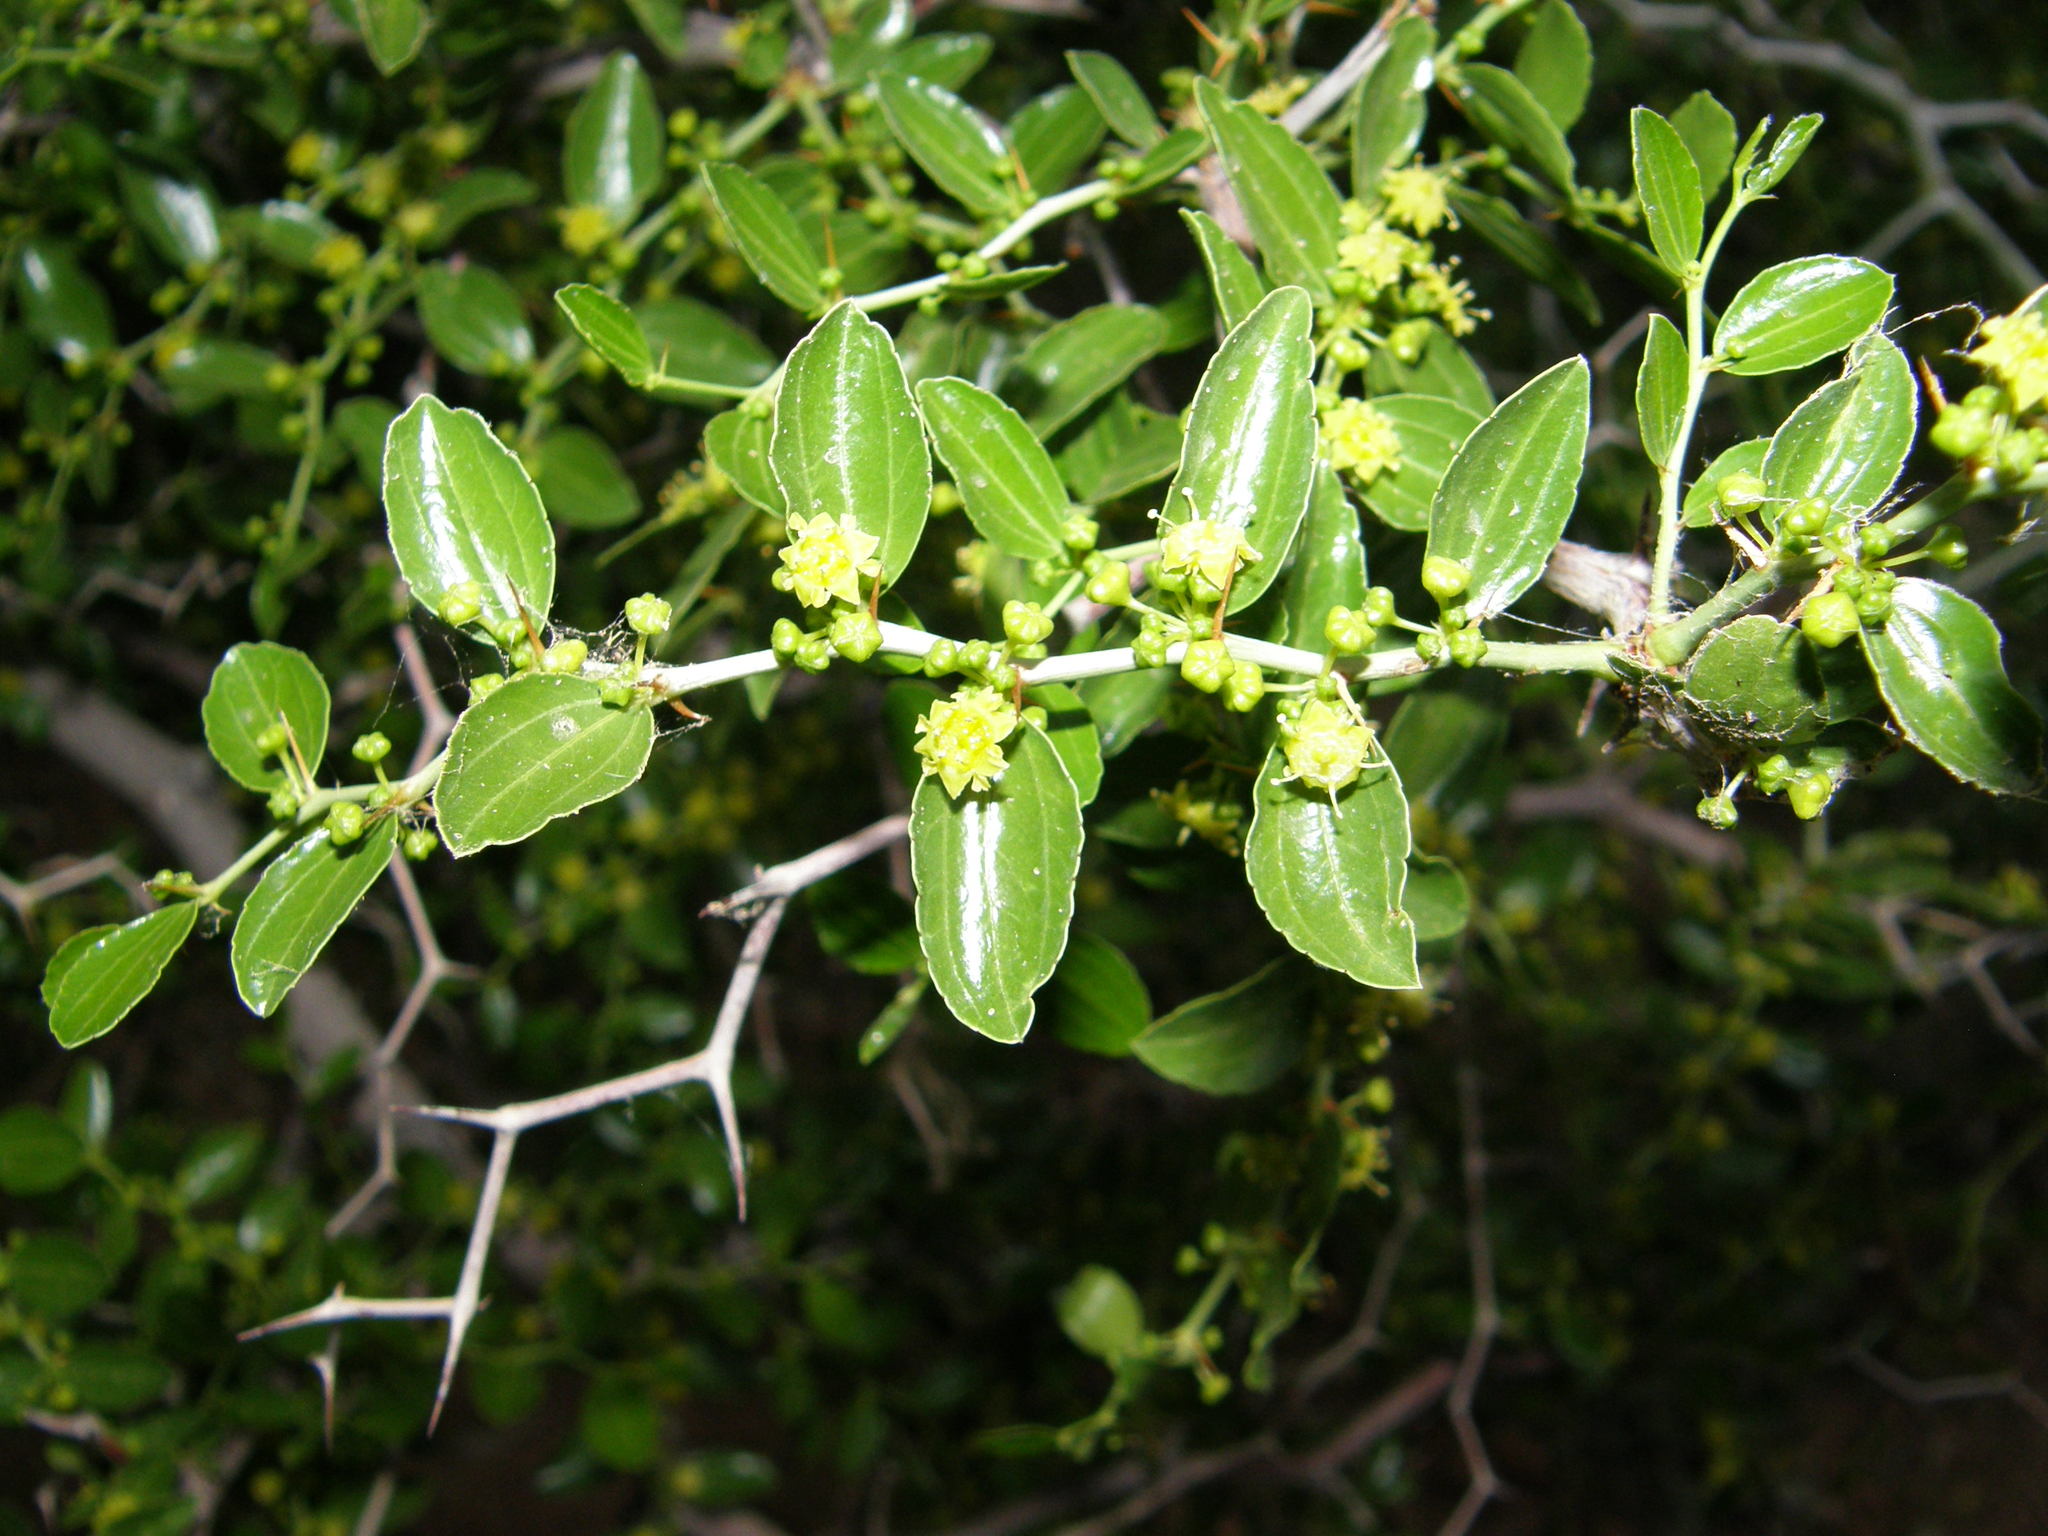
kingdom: Plantae
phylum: Tracheophyta
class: Magnoliopsida
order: Rosales
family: Rhamnaceae
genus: Ziziphus
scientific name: Ziziphus lotus
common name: Lotus
